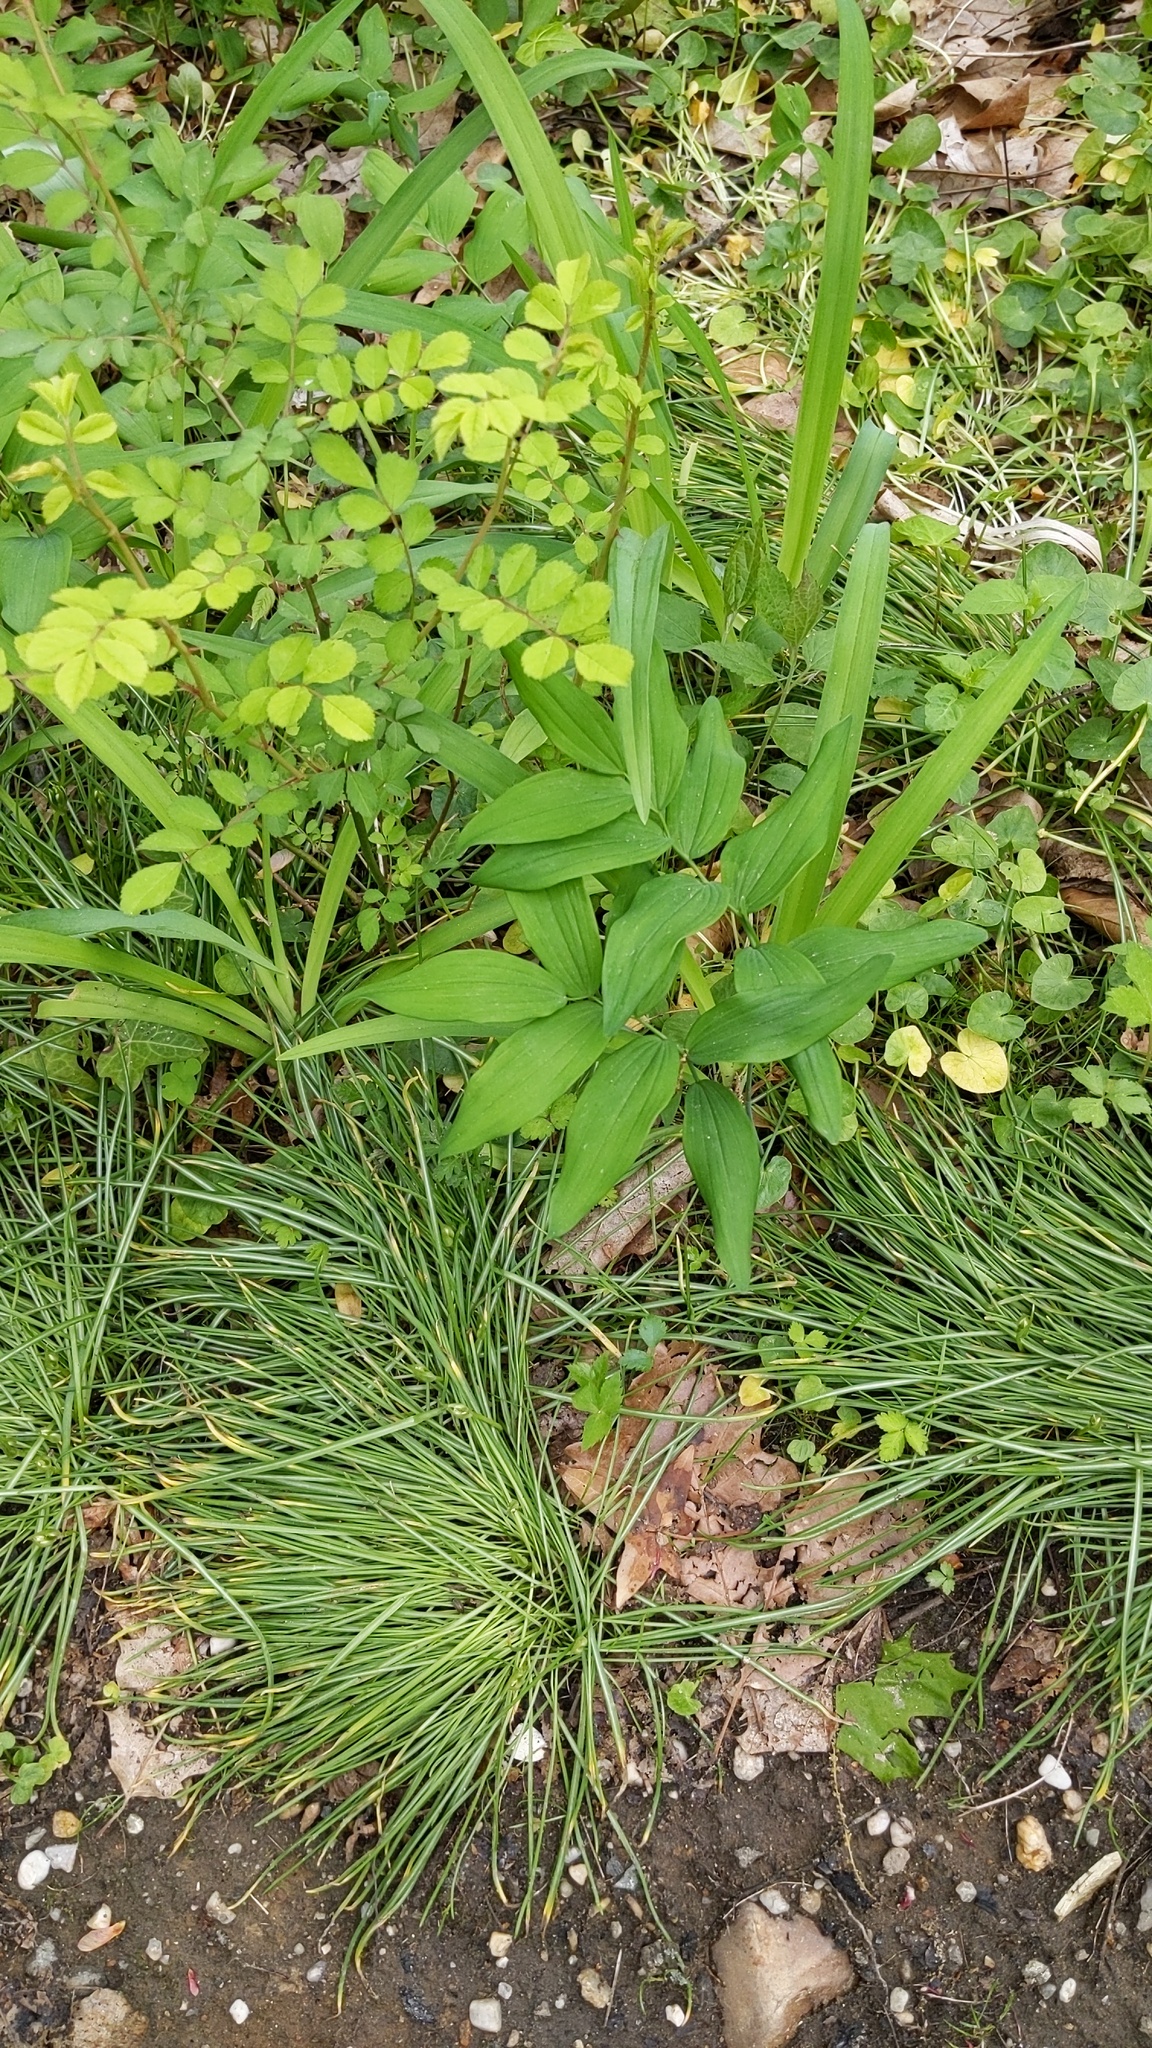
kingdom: Plantae
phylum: Tracheophyta
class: Liliopsida
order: Asparagales
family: Asparagaceae
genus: Convallaria
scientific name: Convallaria majalis
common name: Lily-of-the-valley
